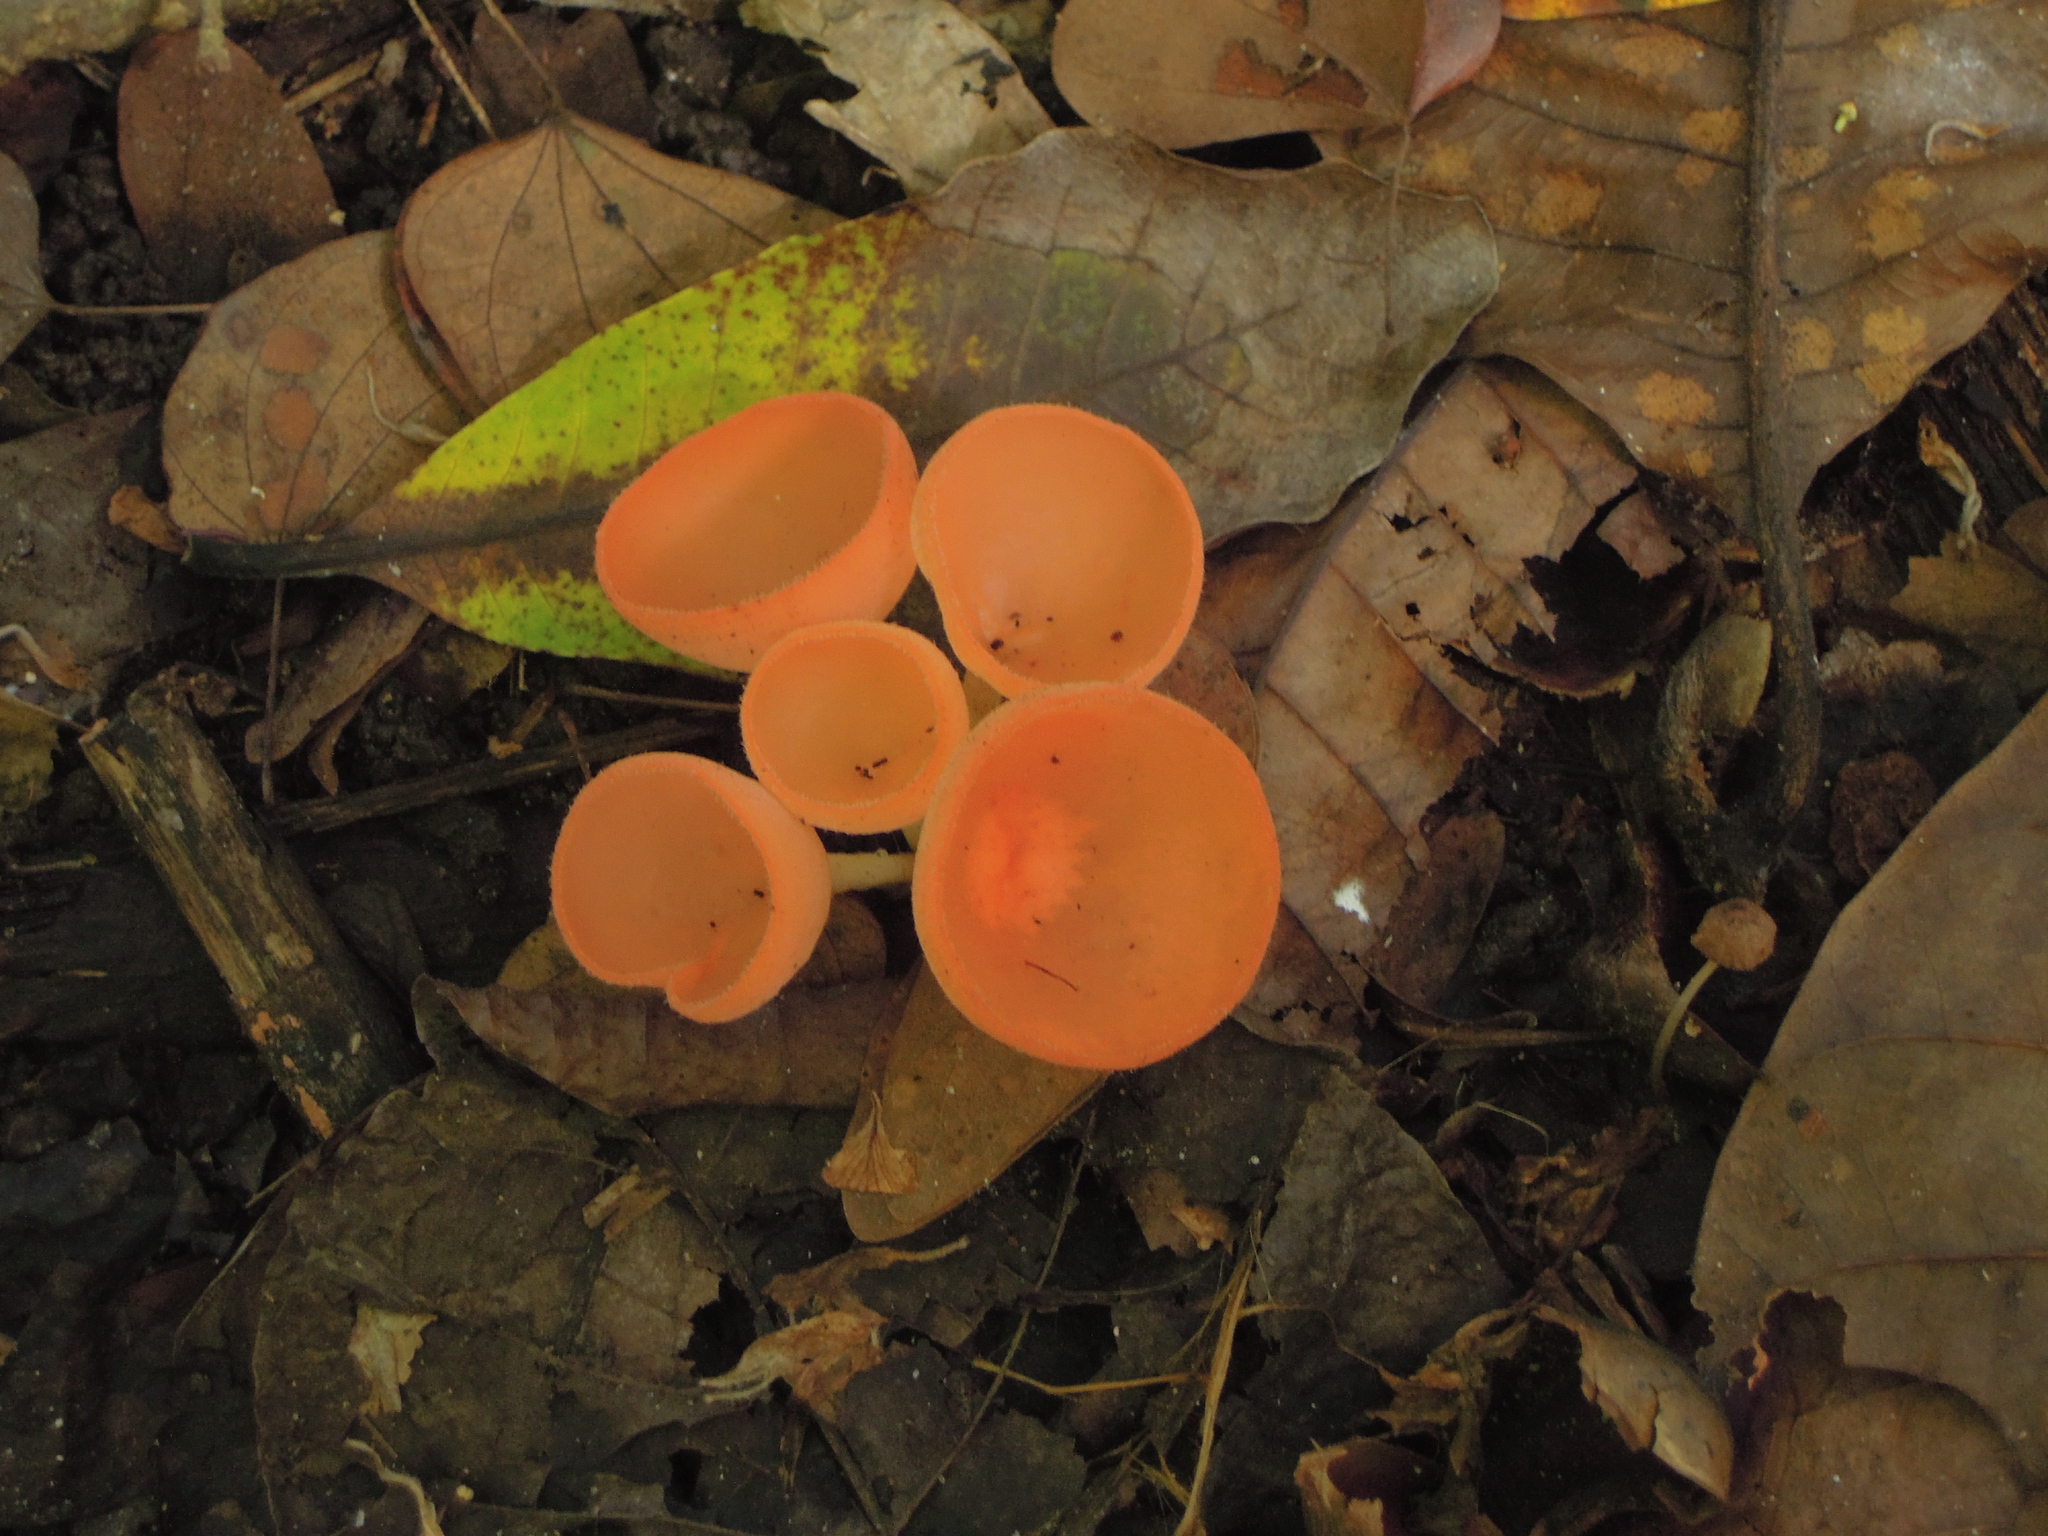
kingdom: Fungi
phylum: Ascomycota
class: Pezizomycetes
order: Pezizales
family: Sarcoscyphaceae
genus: Cookeina
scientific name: Cookeina speciosa
